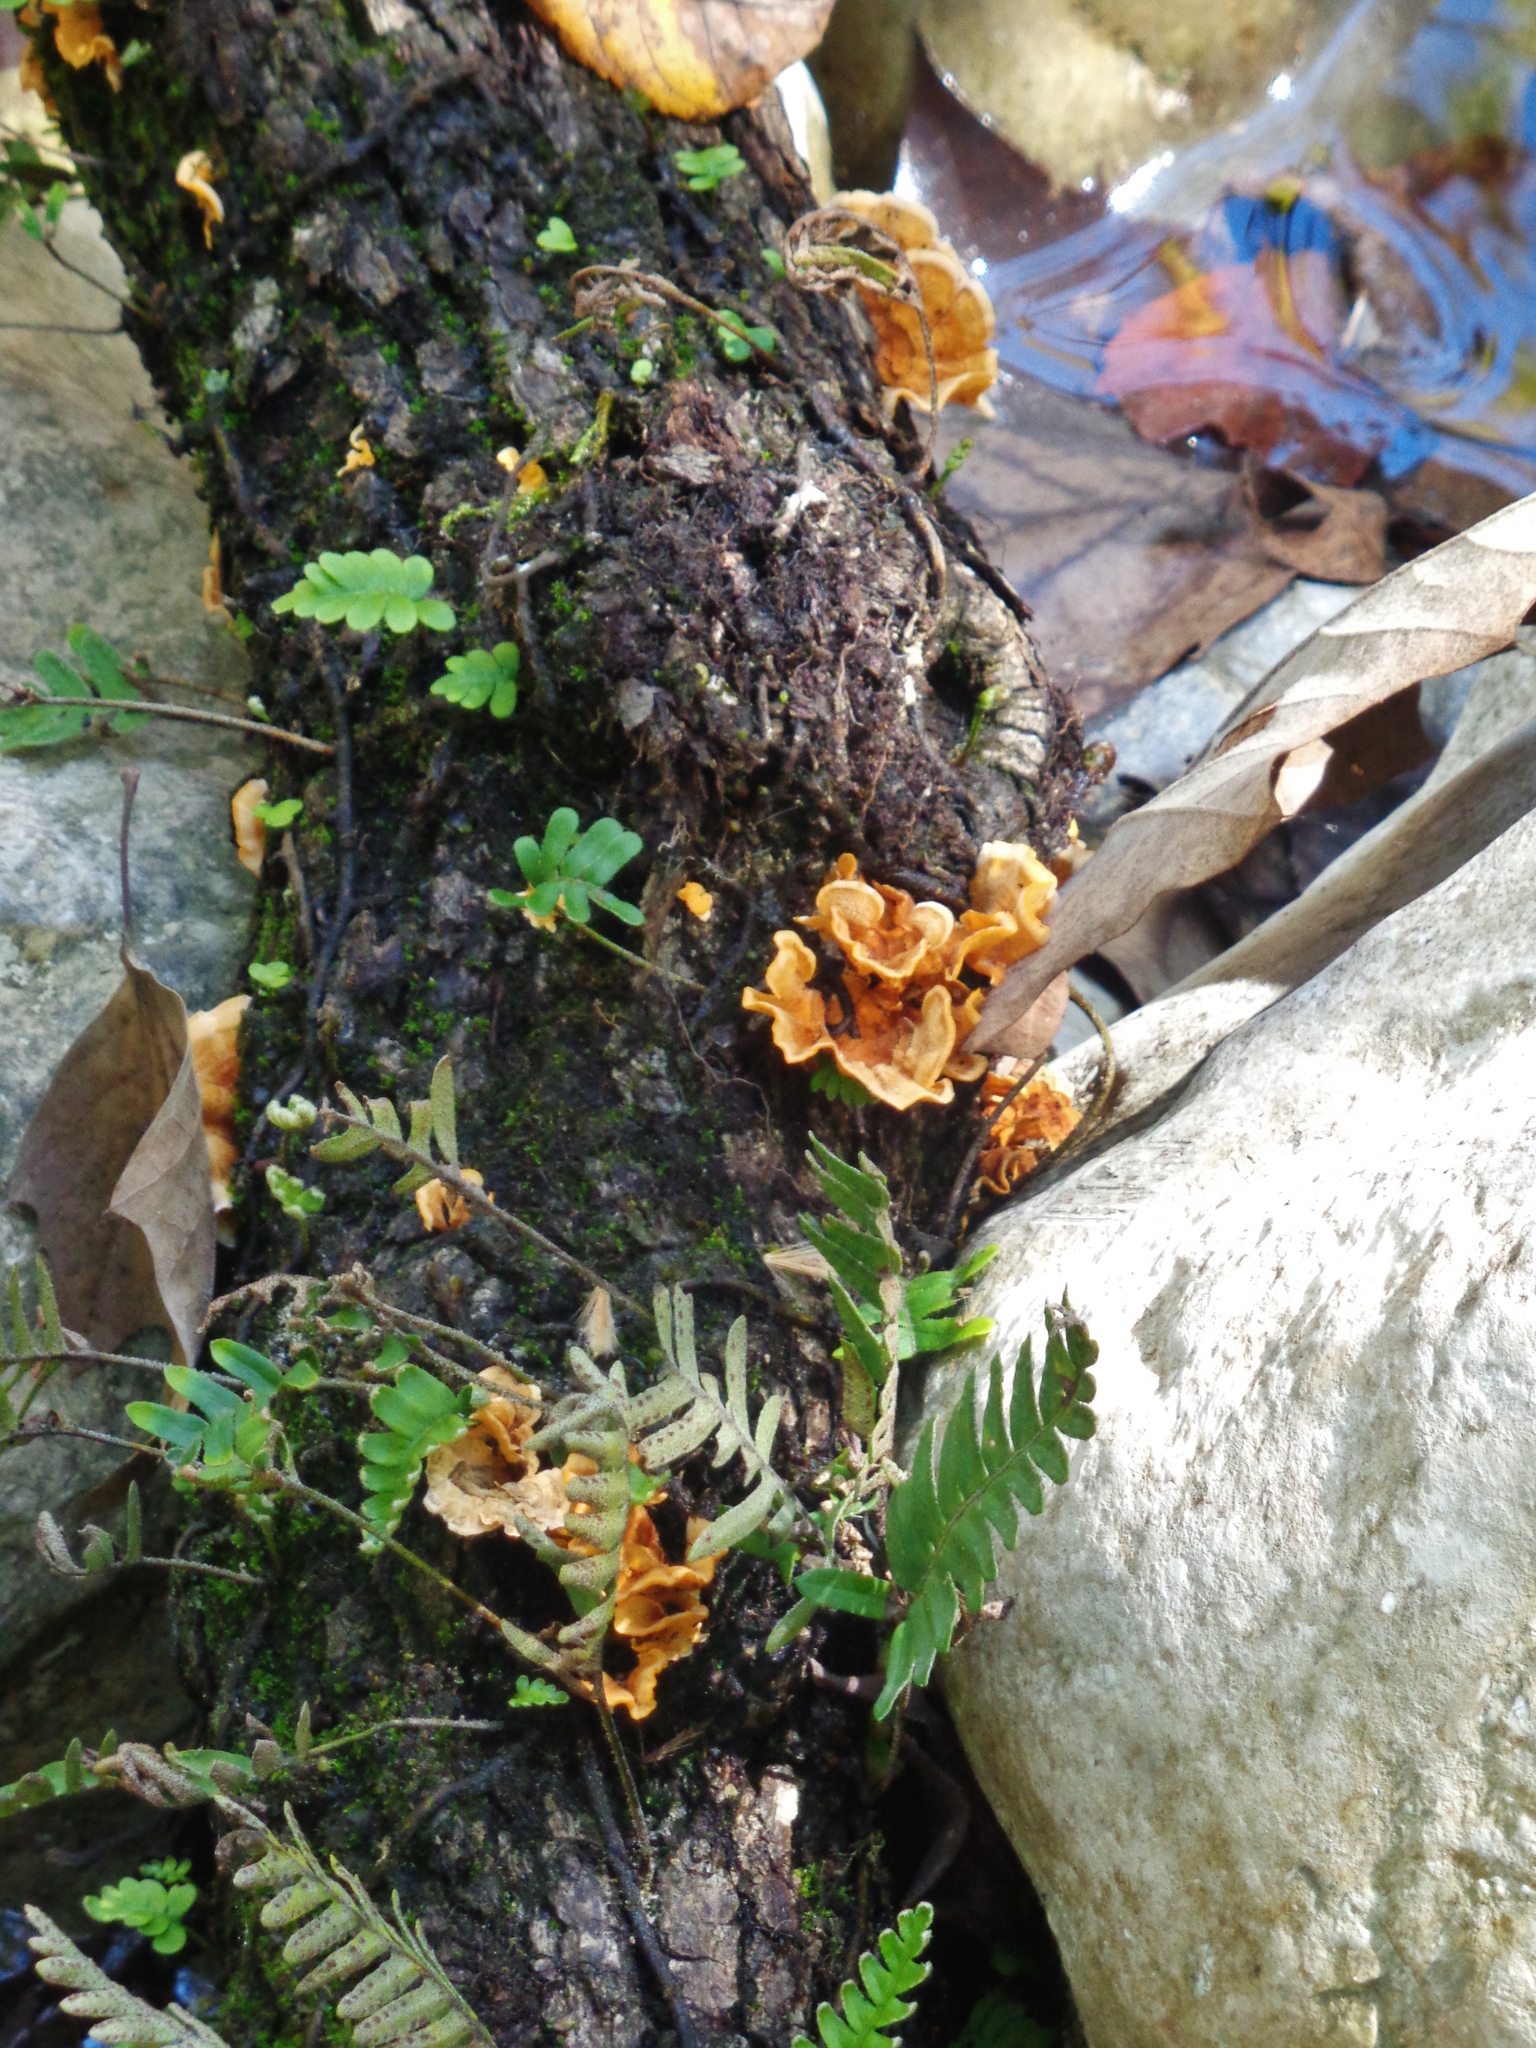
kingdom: Fungi
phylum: Basidiomycota
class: Agaricomycetes
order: Russulales
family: Stereaceae
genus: Stereum
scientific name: Stereum hirsutum
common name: Hairy curtain crust
